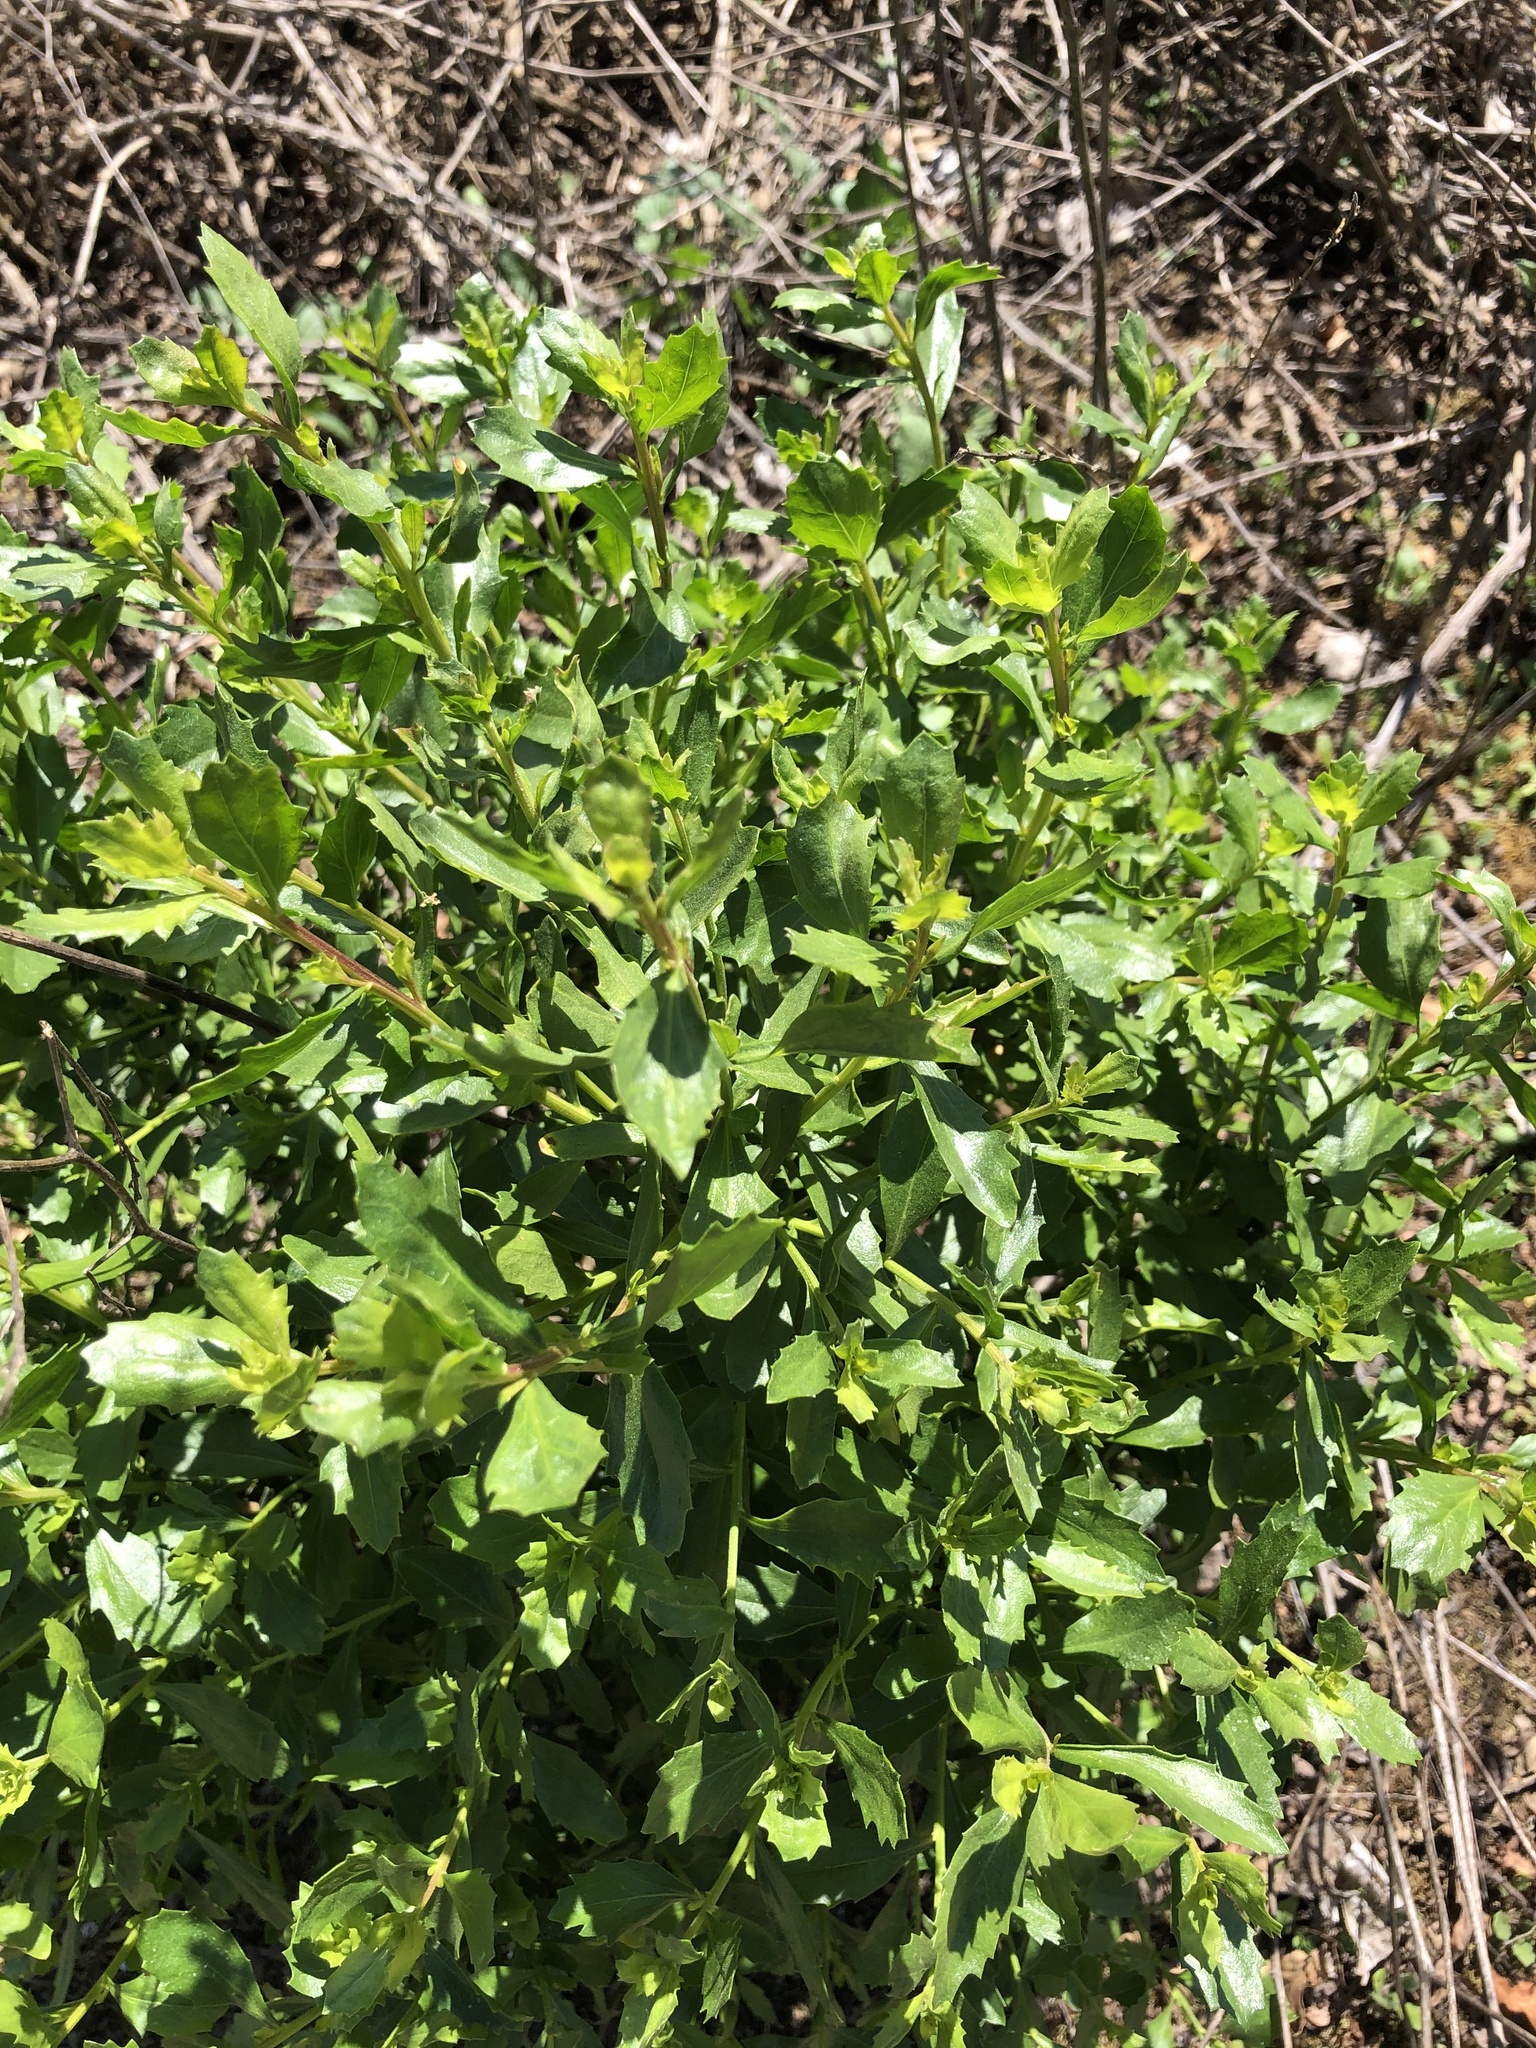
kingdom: Plantae
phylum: Tracheophyta
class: Magnoliopsida
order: Asterales
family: Asteraceae
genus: Baccharis
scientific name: Baccharis pilularis
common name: Coyotebrush
